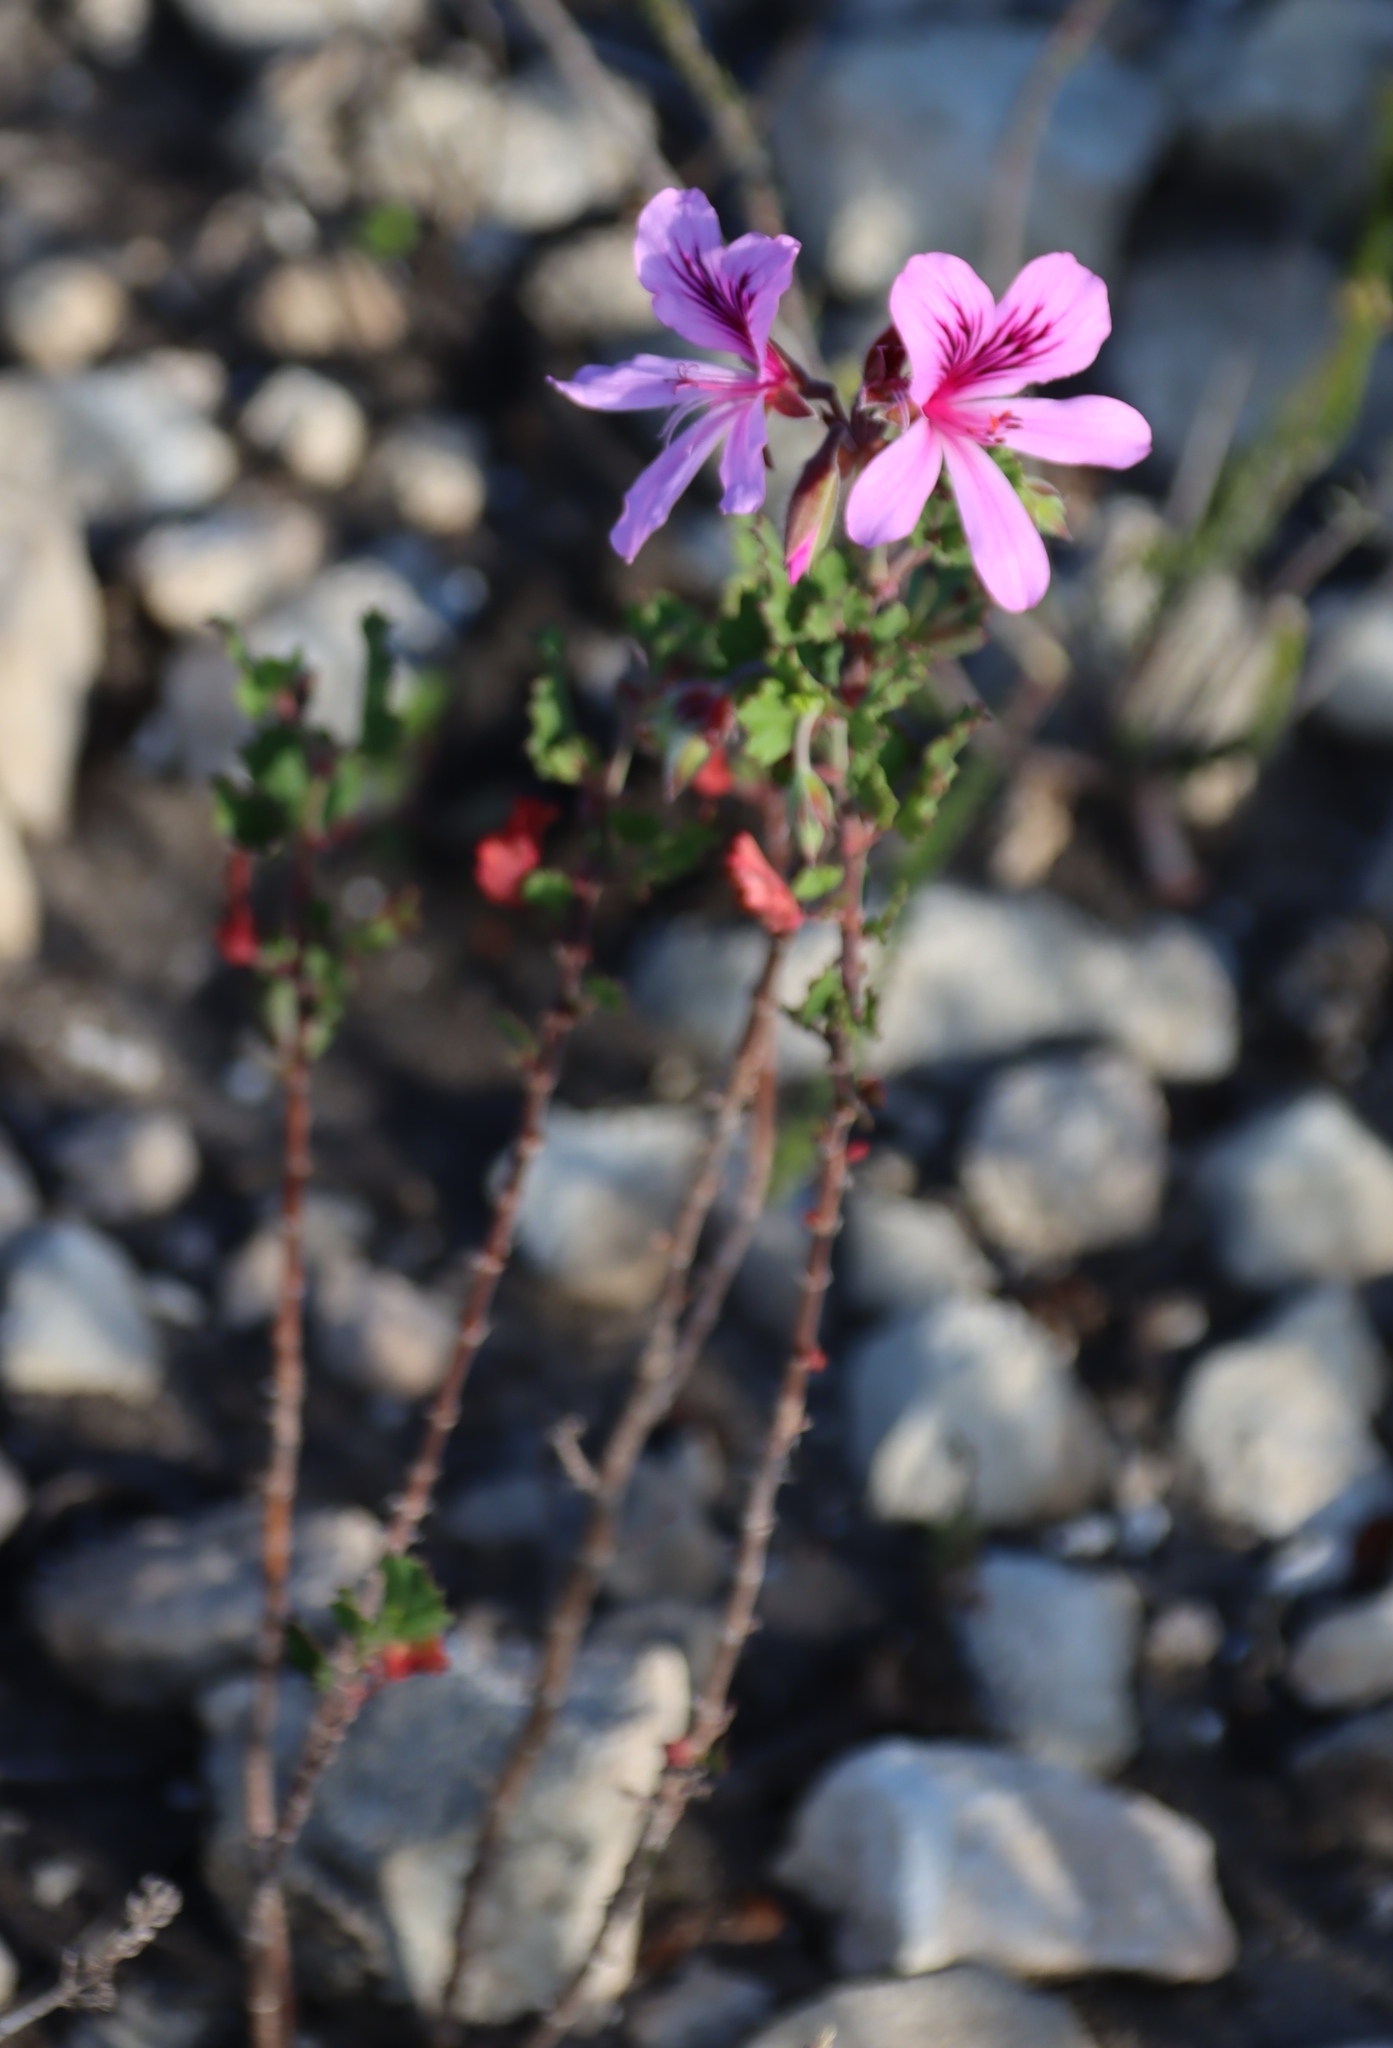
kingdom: Plantae
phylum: Tracheophyta
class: Magnoliopsida
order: Geraniales
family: Geraniaceae
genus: Pelargonium
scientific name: Pelargonium betulinum
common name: Birch-leaf pelargonium
